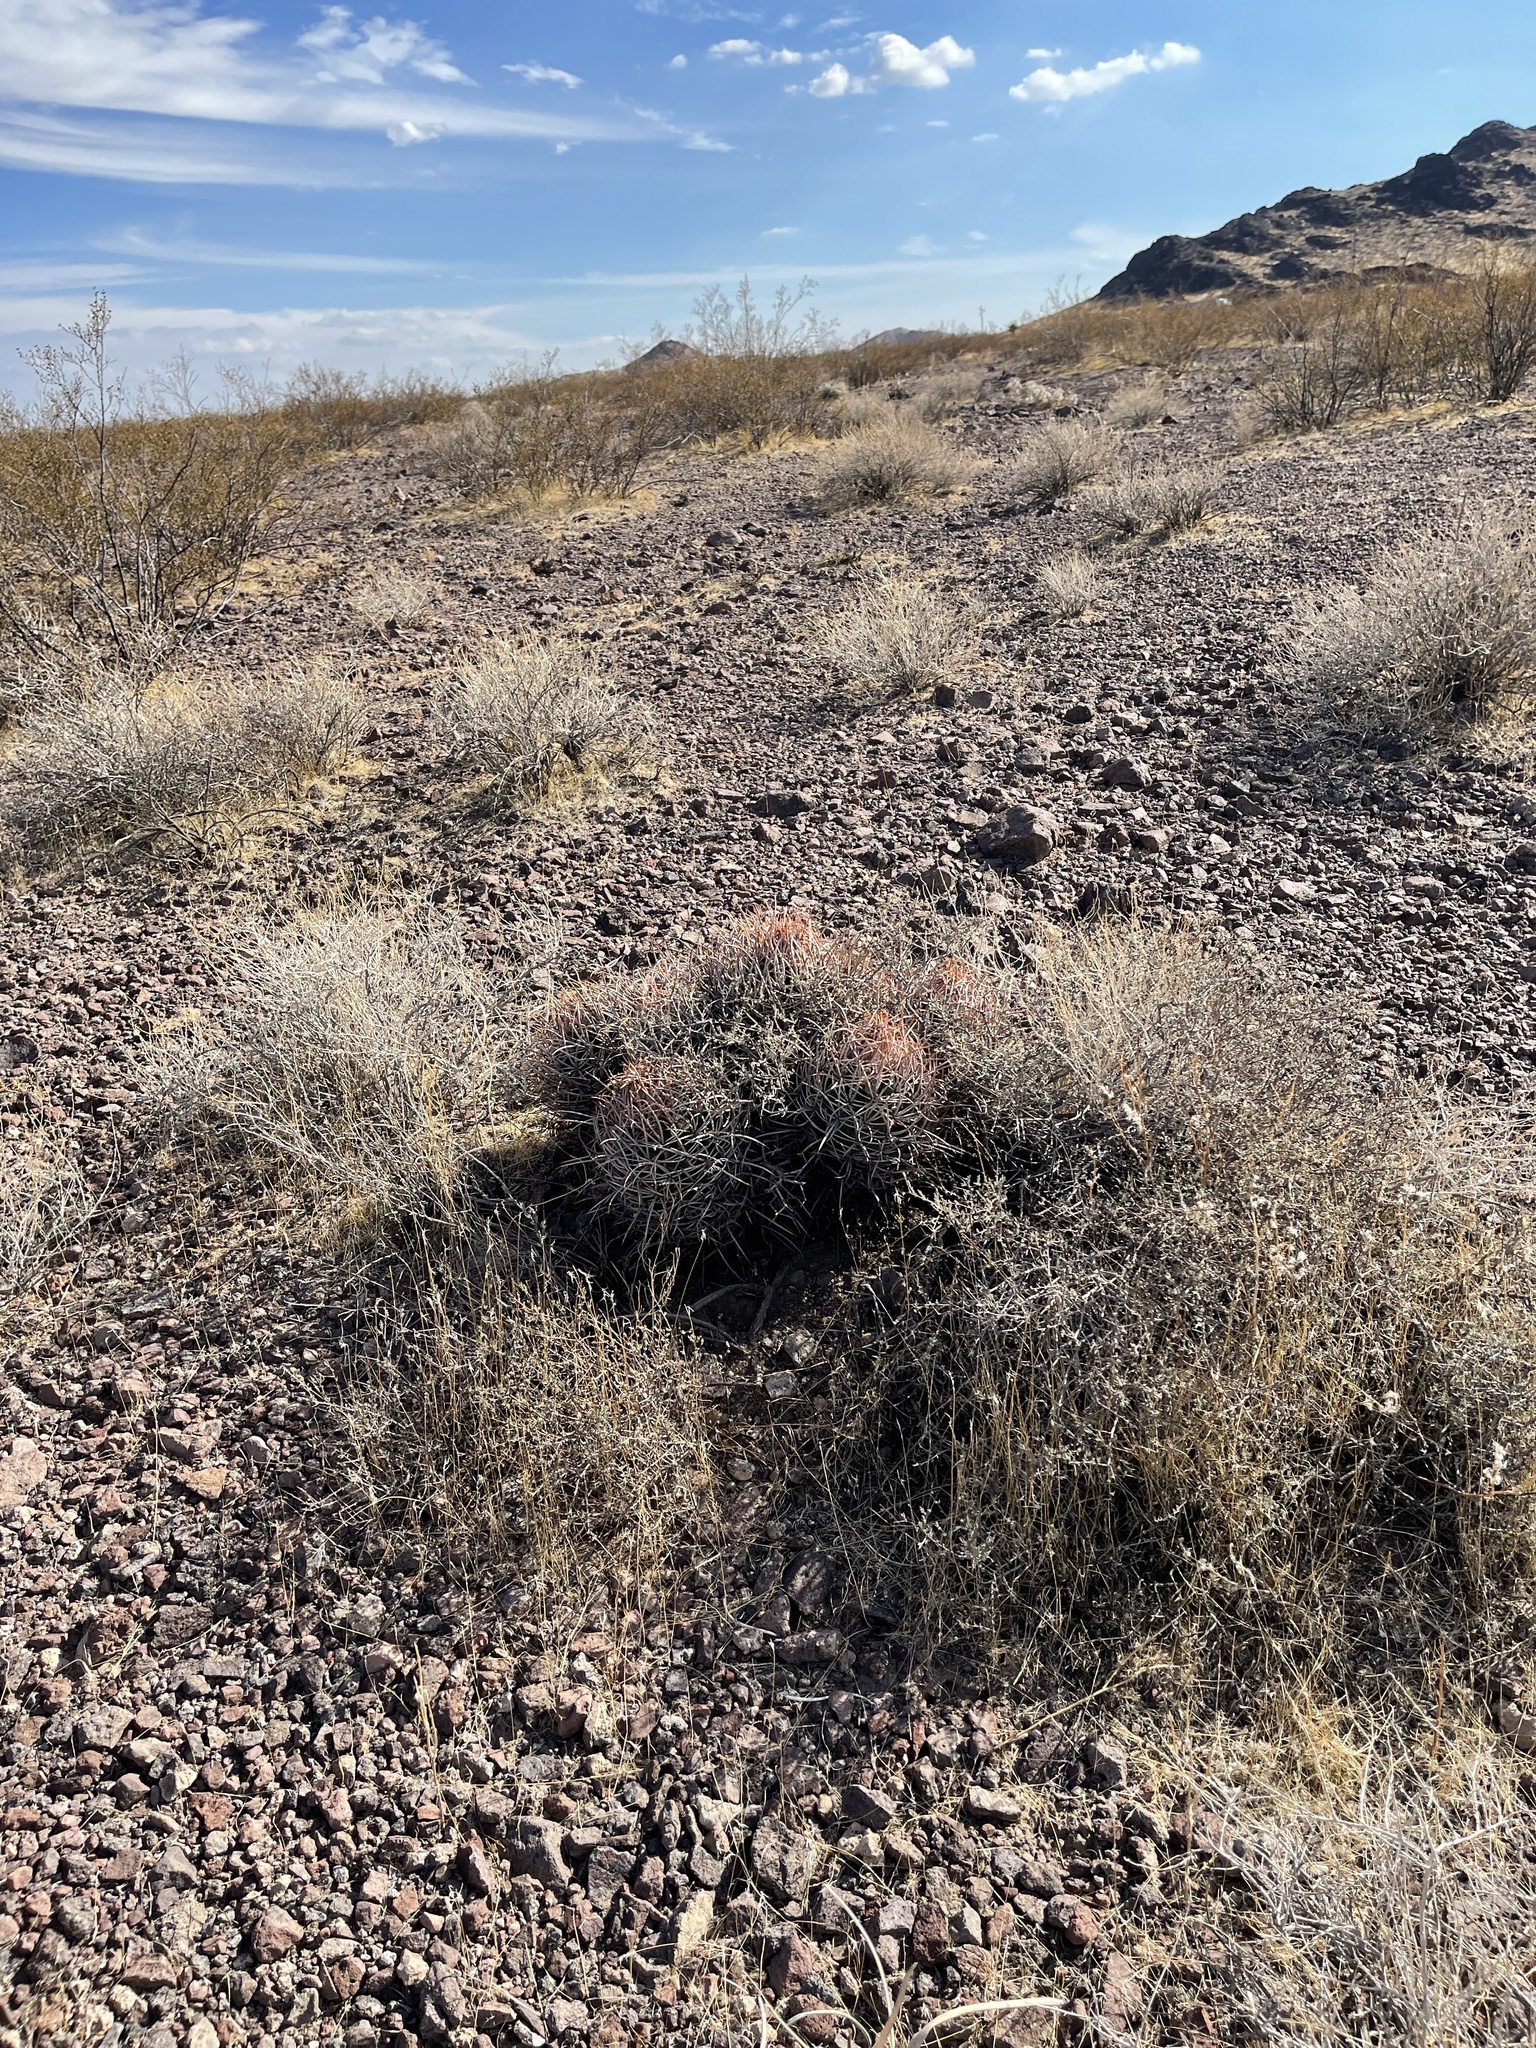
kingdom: Plantae
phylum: Tracheophyta
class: Magnoliopsida
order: Caryophyllales
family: Cactaceae
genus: Echinocactus
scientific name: Echinocactus polycephalus
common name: Cottontop cactus
